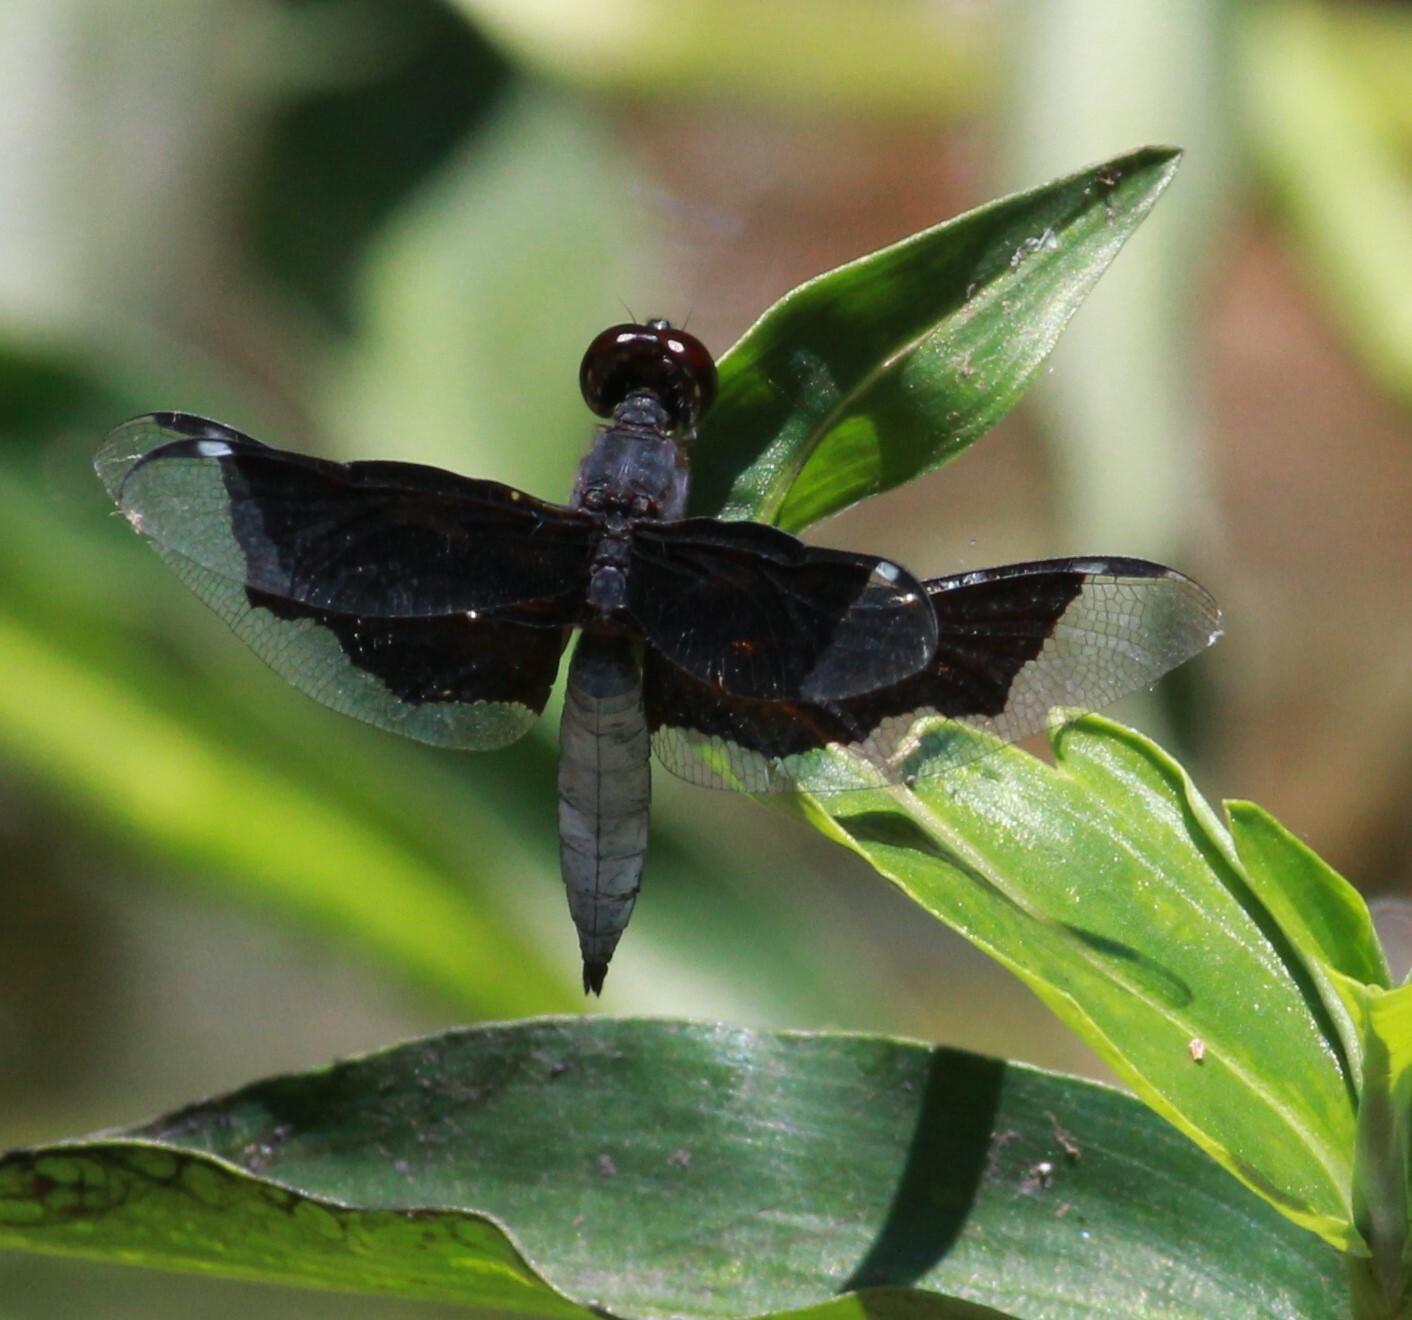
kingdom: Animalia
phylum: Arthropoda
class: Insecta
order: Odonata
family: Libellulidae
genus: Palpopleura
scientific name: Palpopleura lucia
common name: Lucia widow
